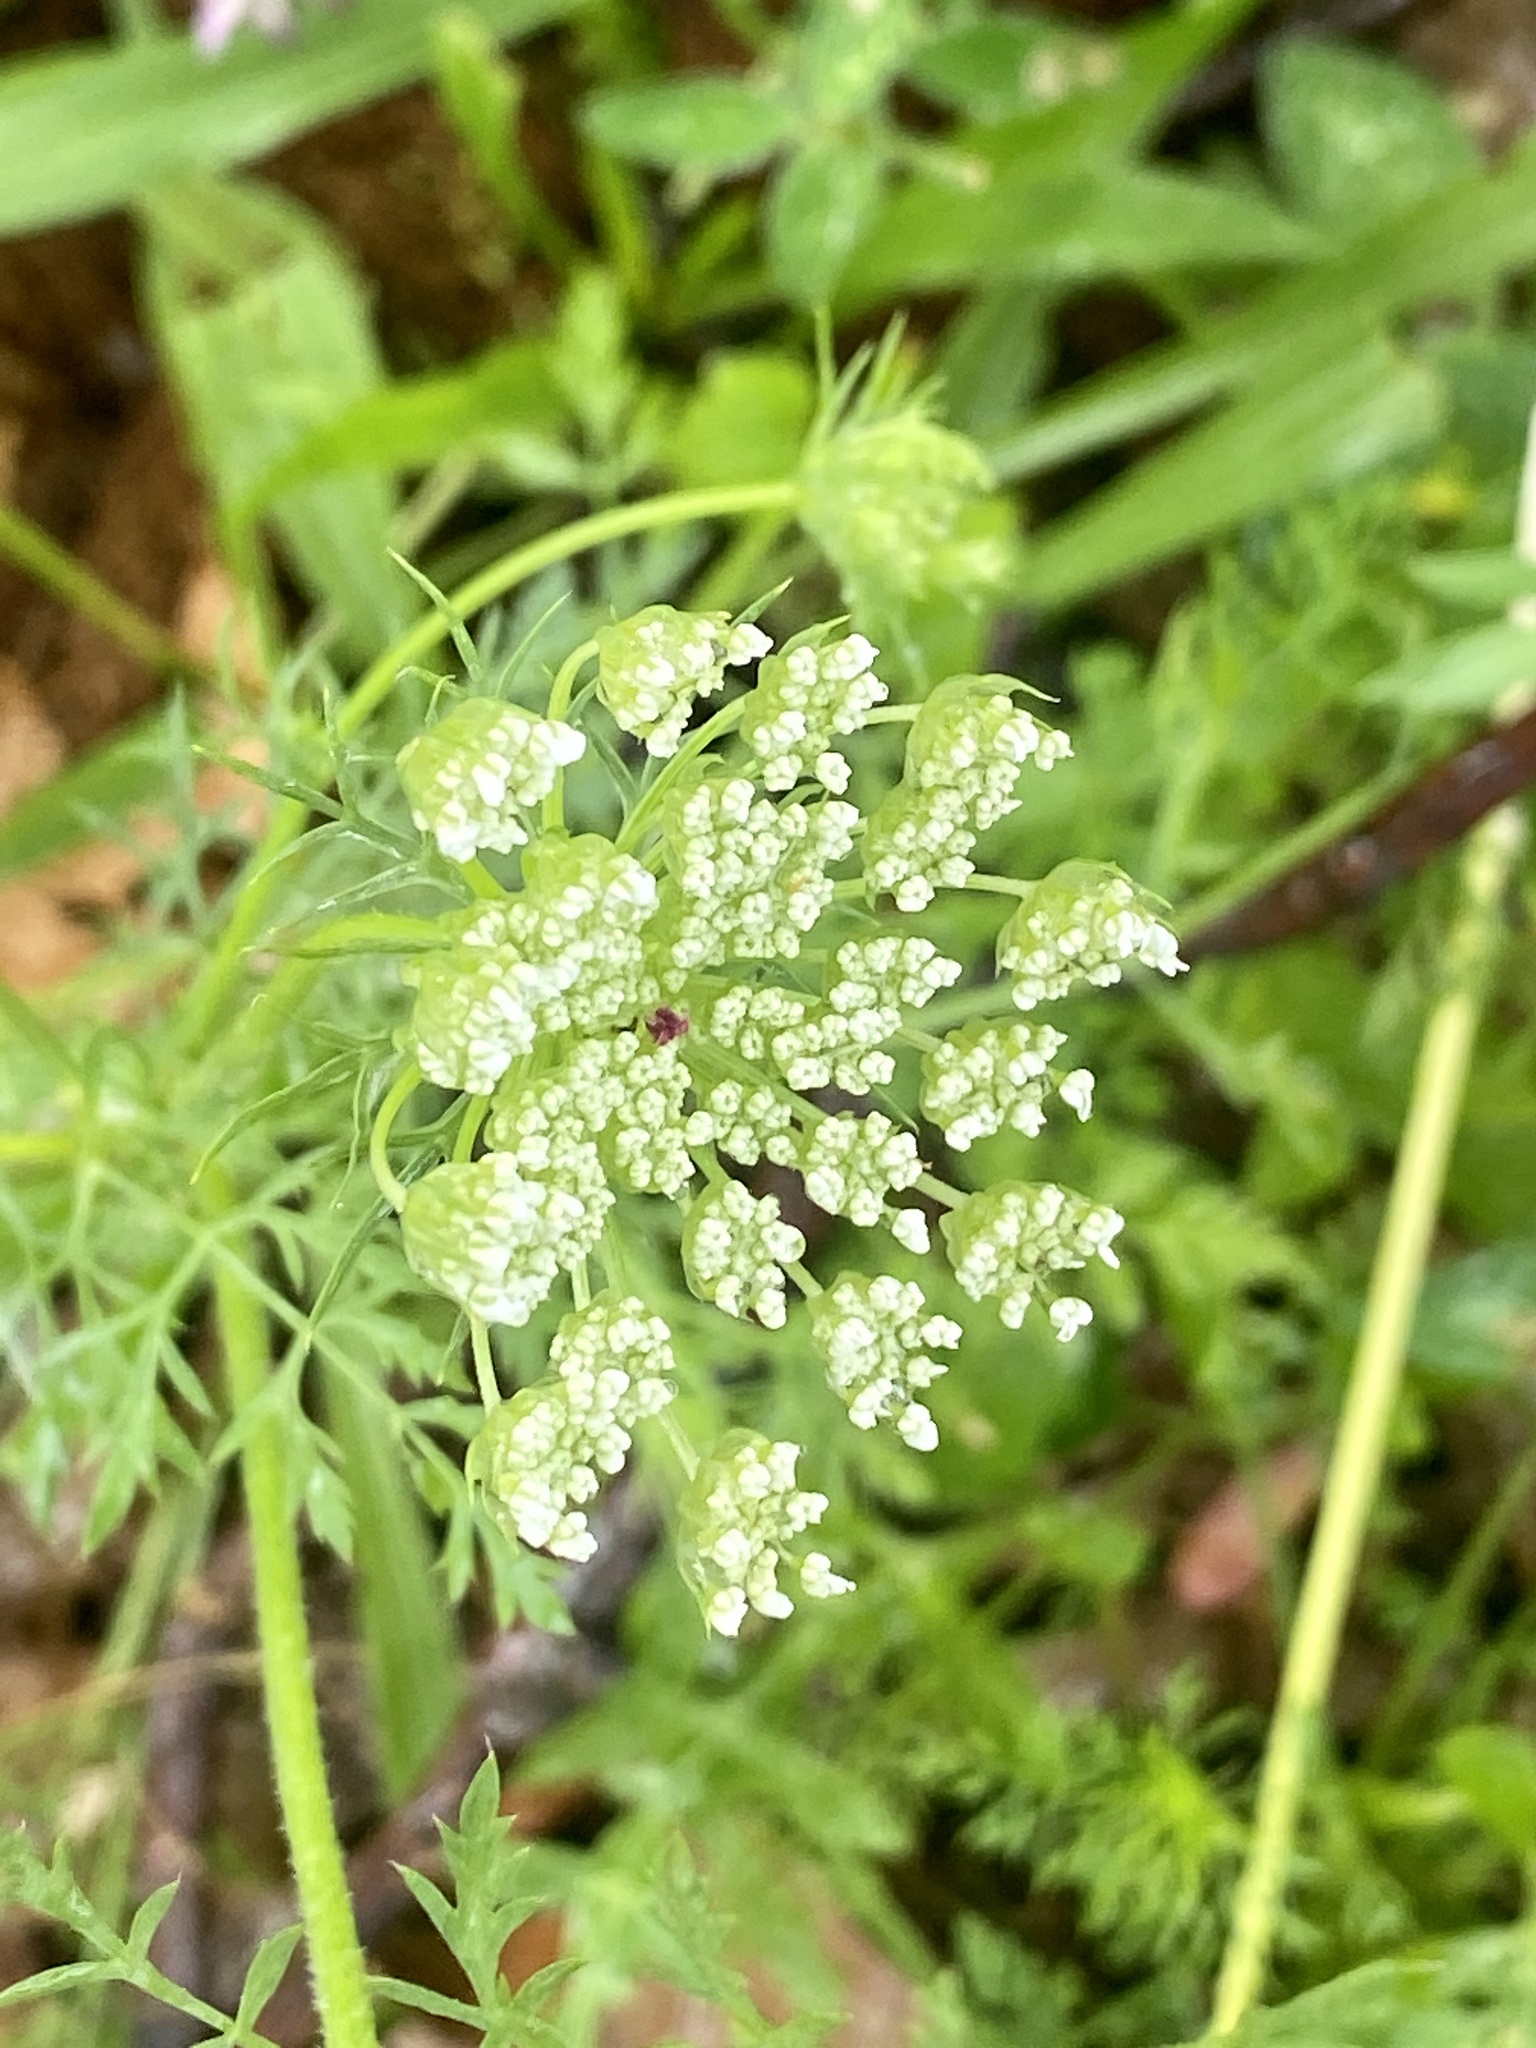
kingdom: Plantae
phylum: Tracheophyta
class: Magnoliopsida
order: Apiales
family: Apiaceae
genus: Daucus
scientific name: Daucus carota
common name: Wild carrot
